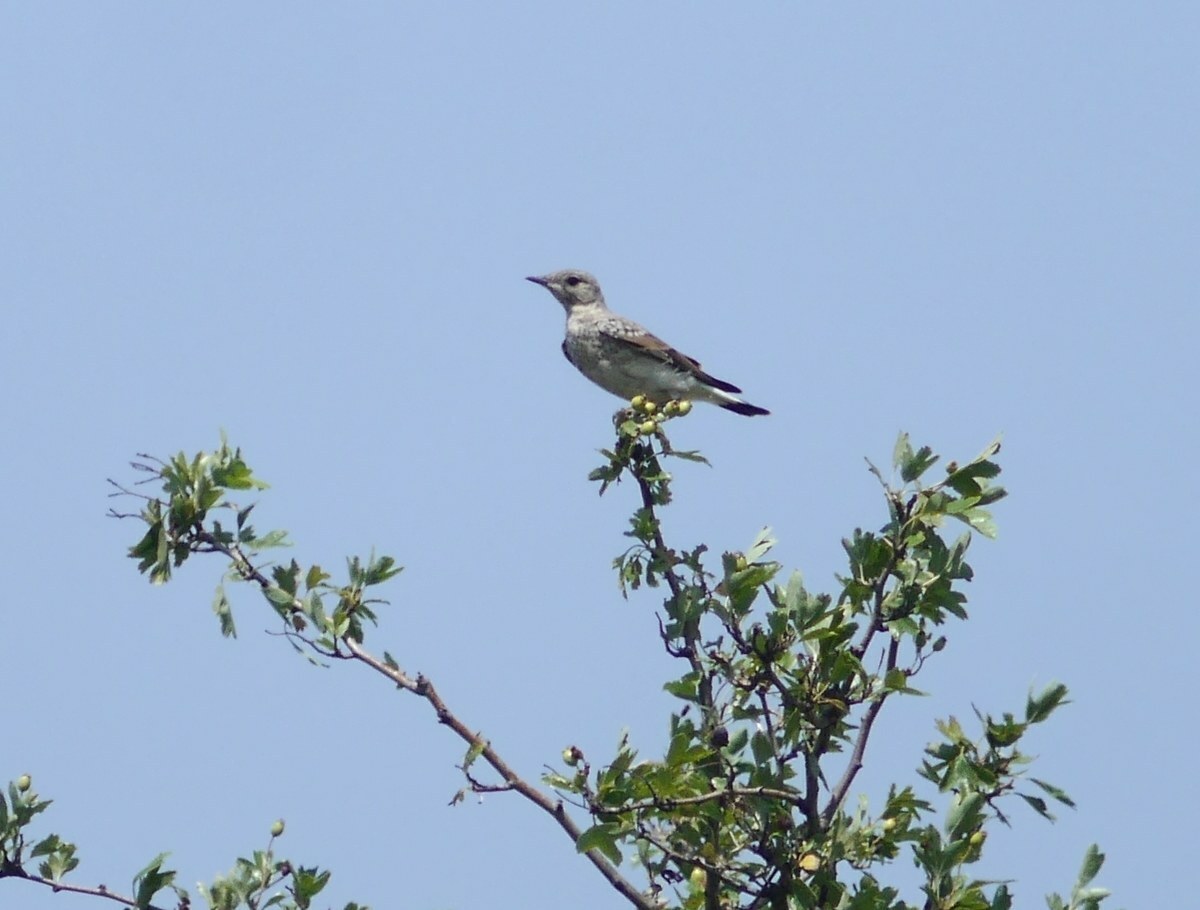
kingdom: Animalia
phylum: Chordata
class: Aves
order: Passeriformes
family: Muscicapidae
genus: Oenanthe
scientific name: Oenanthe oenanthe
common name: Northern wheatear
